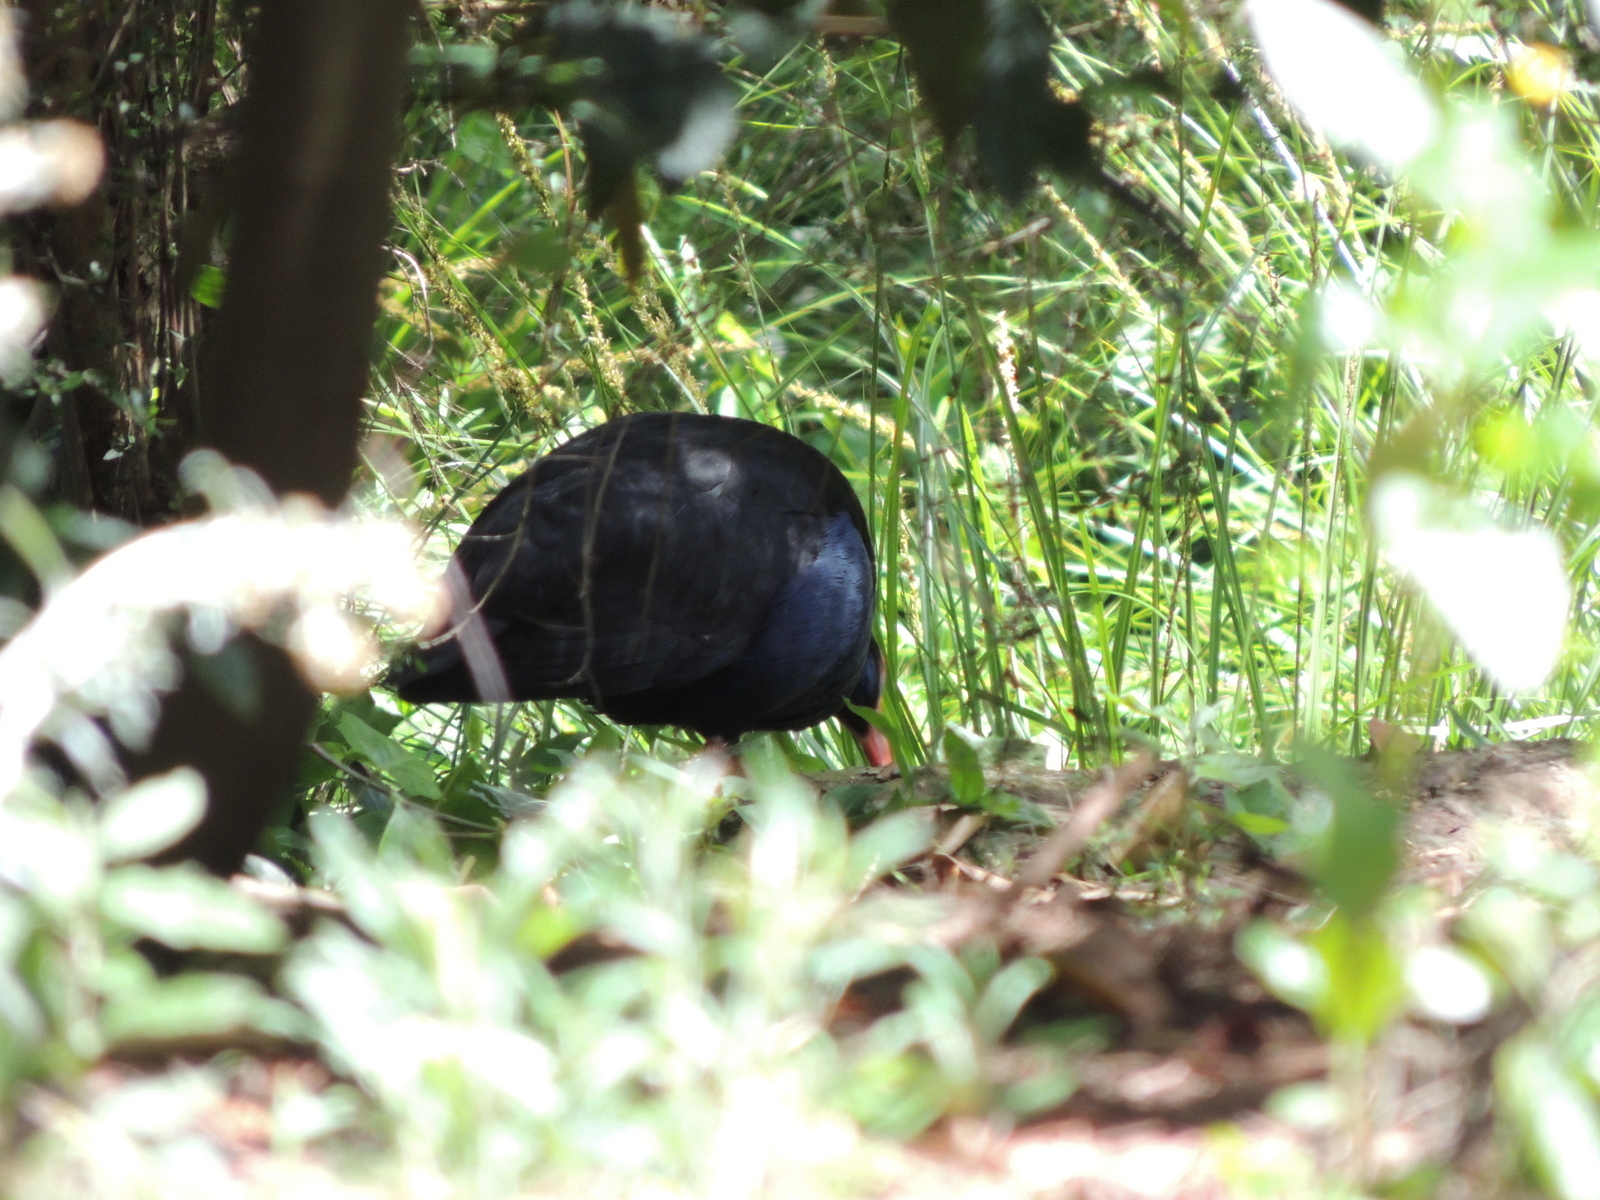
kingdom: Animalia
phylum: Chordata
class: Aves
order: Gruiformes
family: Rallidae
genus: Porphyrio
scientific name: Porphyrio melanotus
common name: Australasian swamphen
